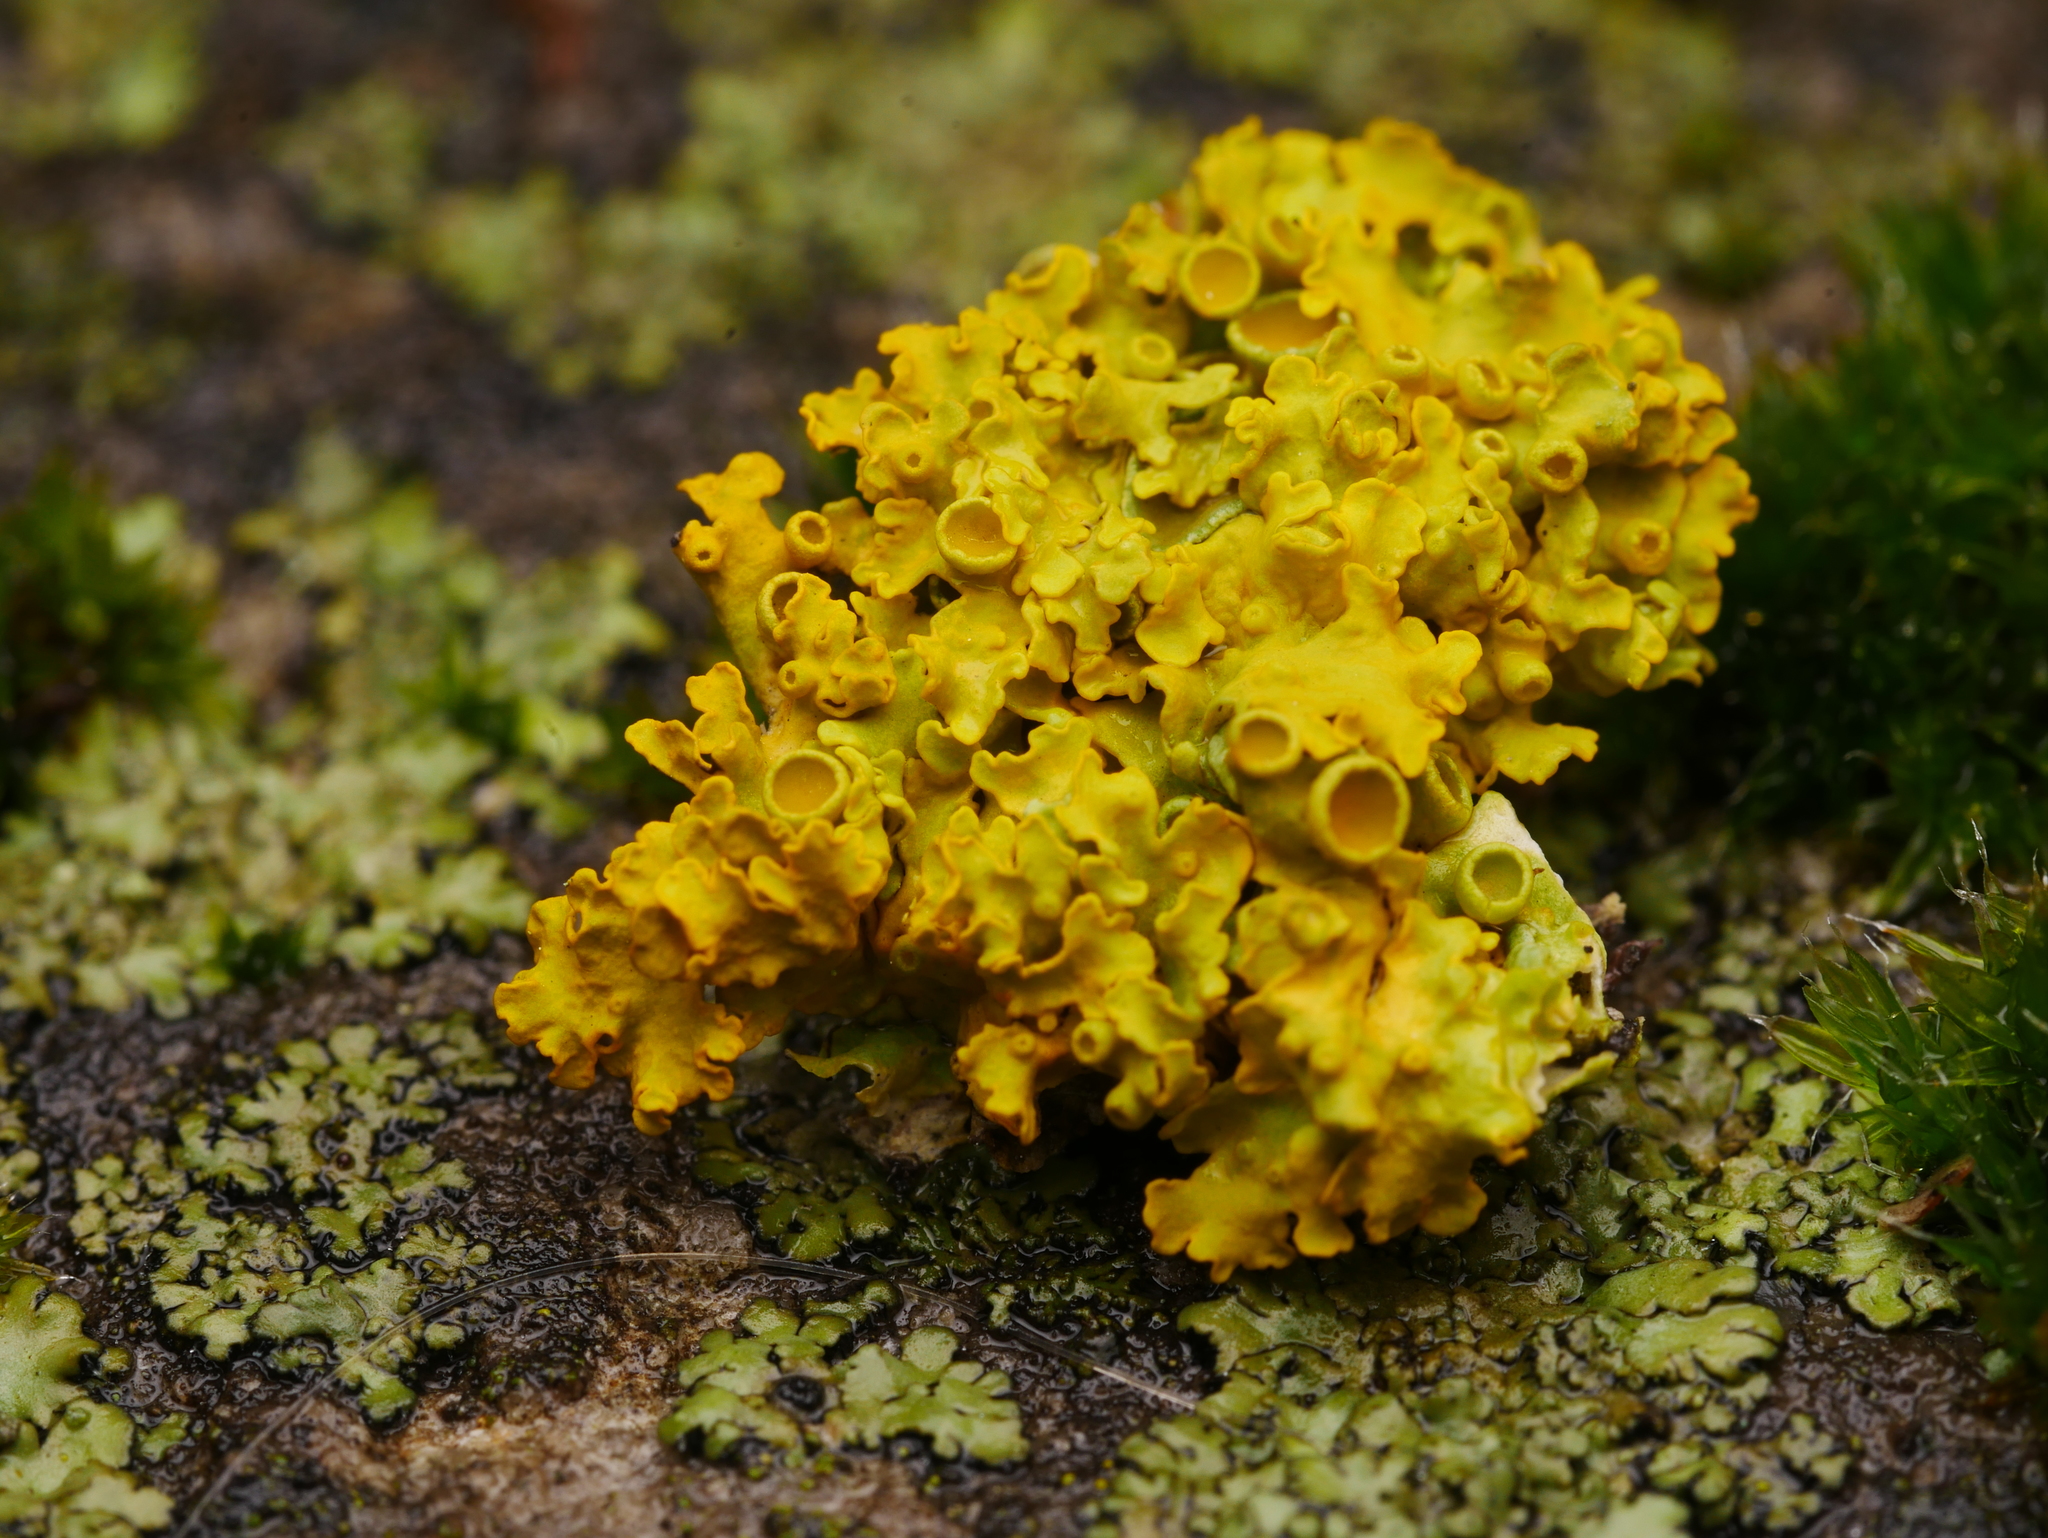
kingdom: Fungi
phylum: Ascomycota
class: Lecanoromycetes
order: Teloschistales
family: Teloschistaceae
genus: Xanthoria
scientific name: Xanthoria parietina
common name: Common orange lichen
